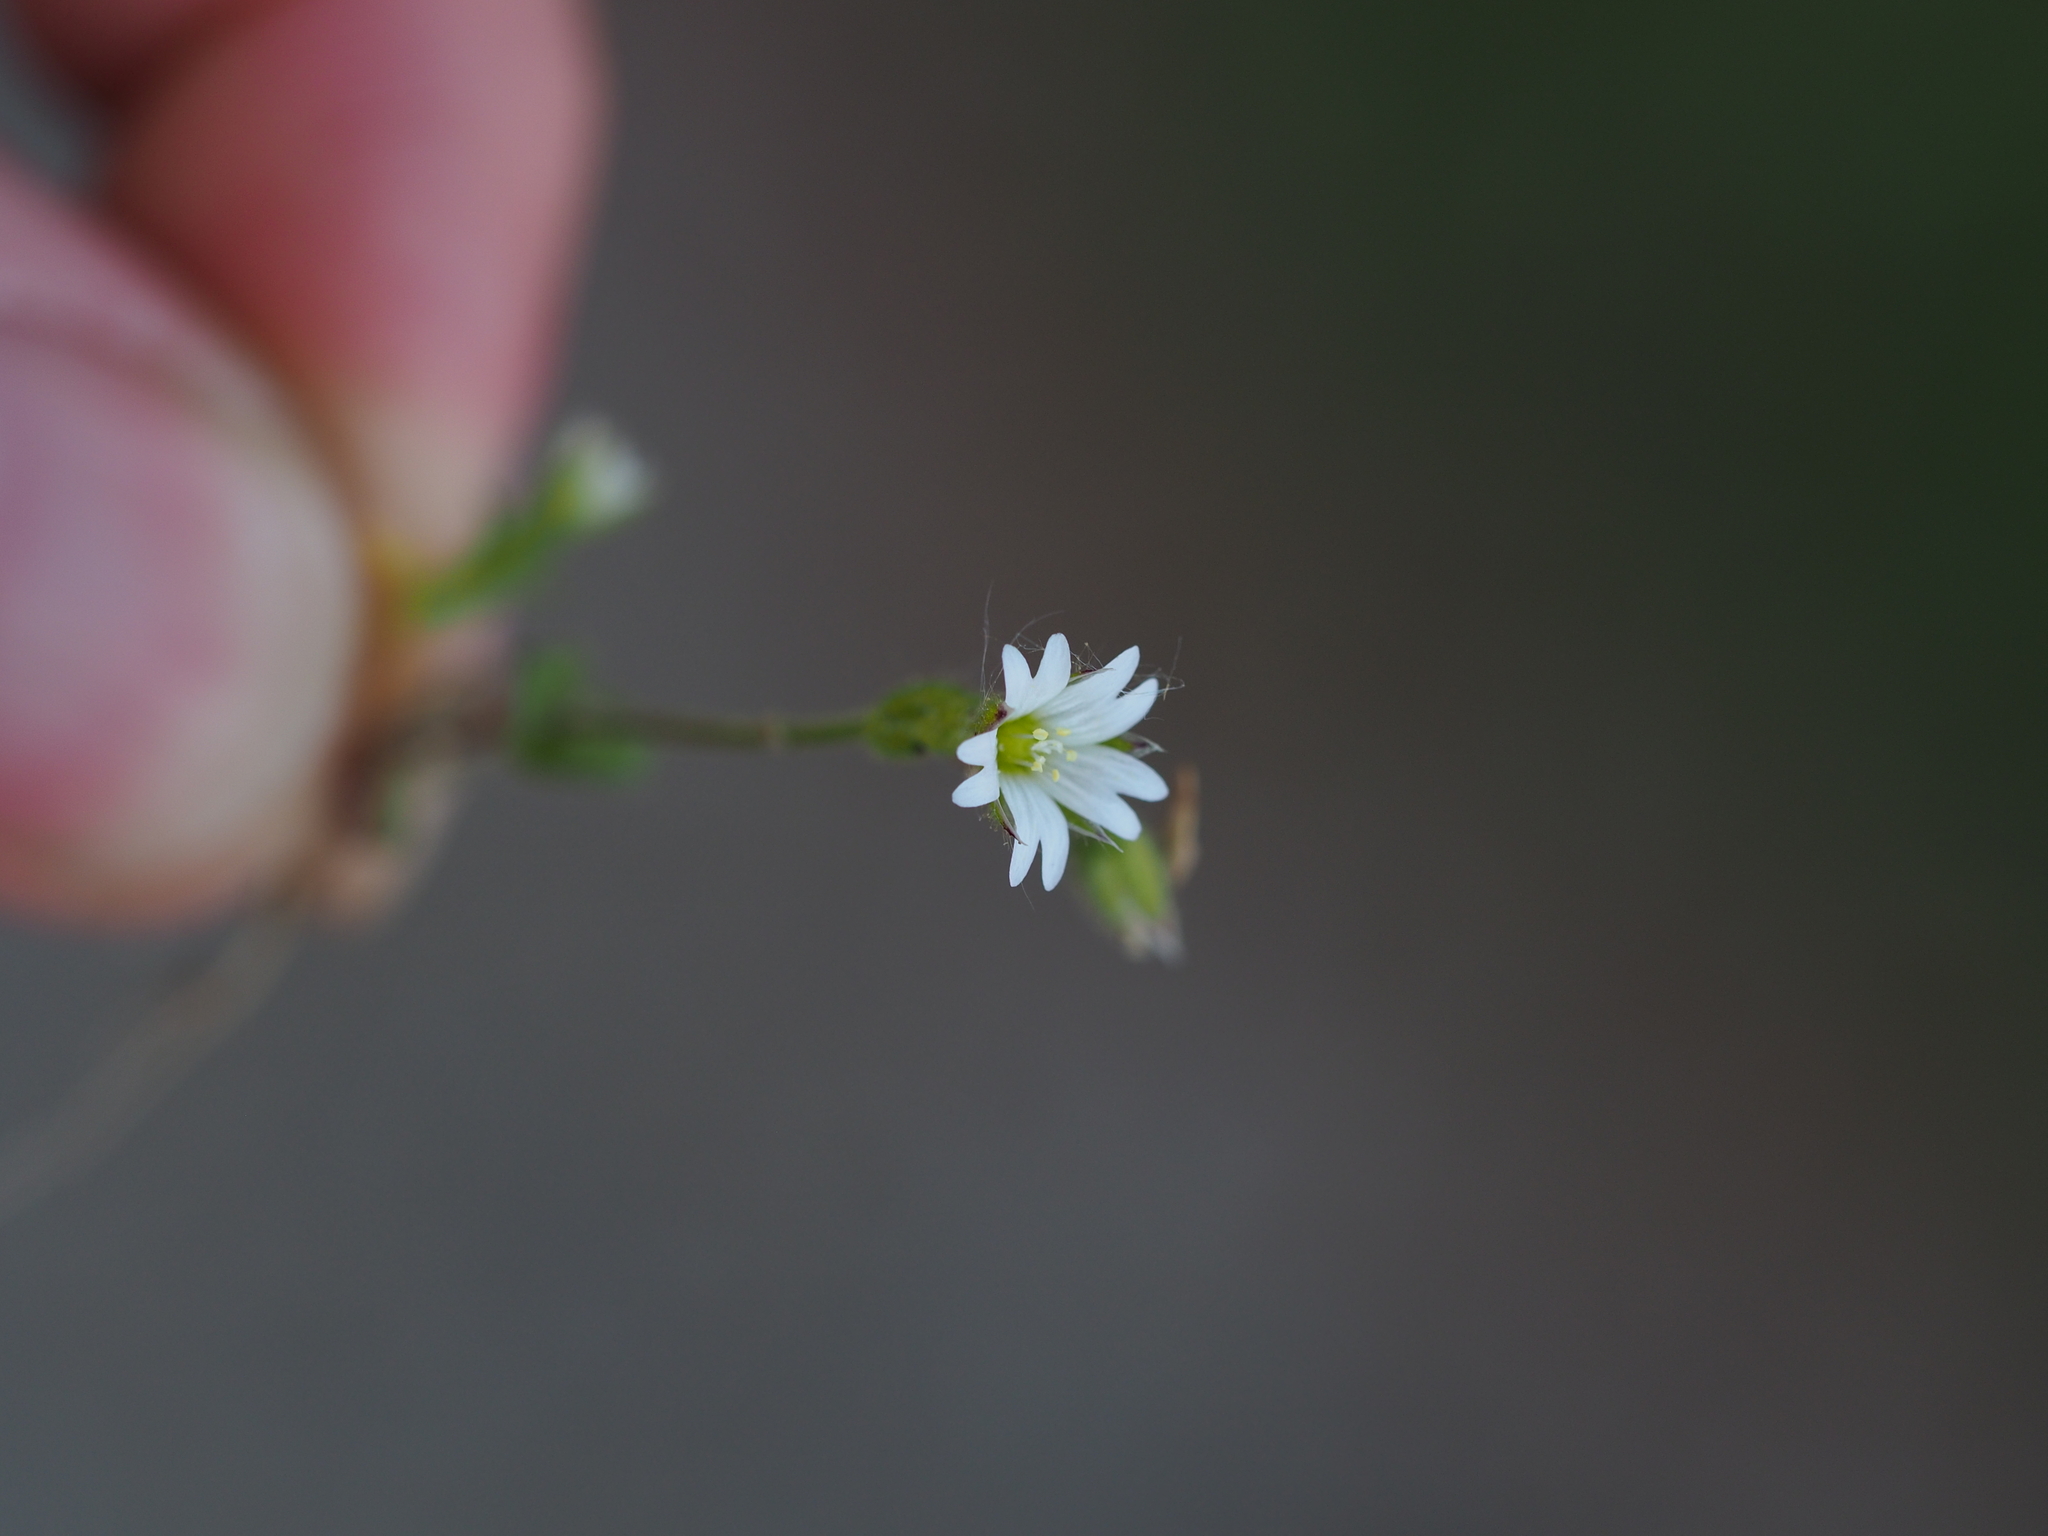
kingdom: Plantae
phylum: Tracheophyta
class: Magnoliopsida
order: Caryophyllales
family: Caryophyllaceae
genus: Cerastium
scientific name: Cerastium glutinosum
